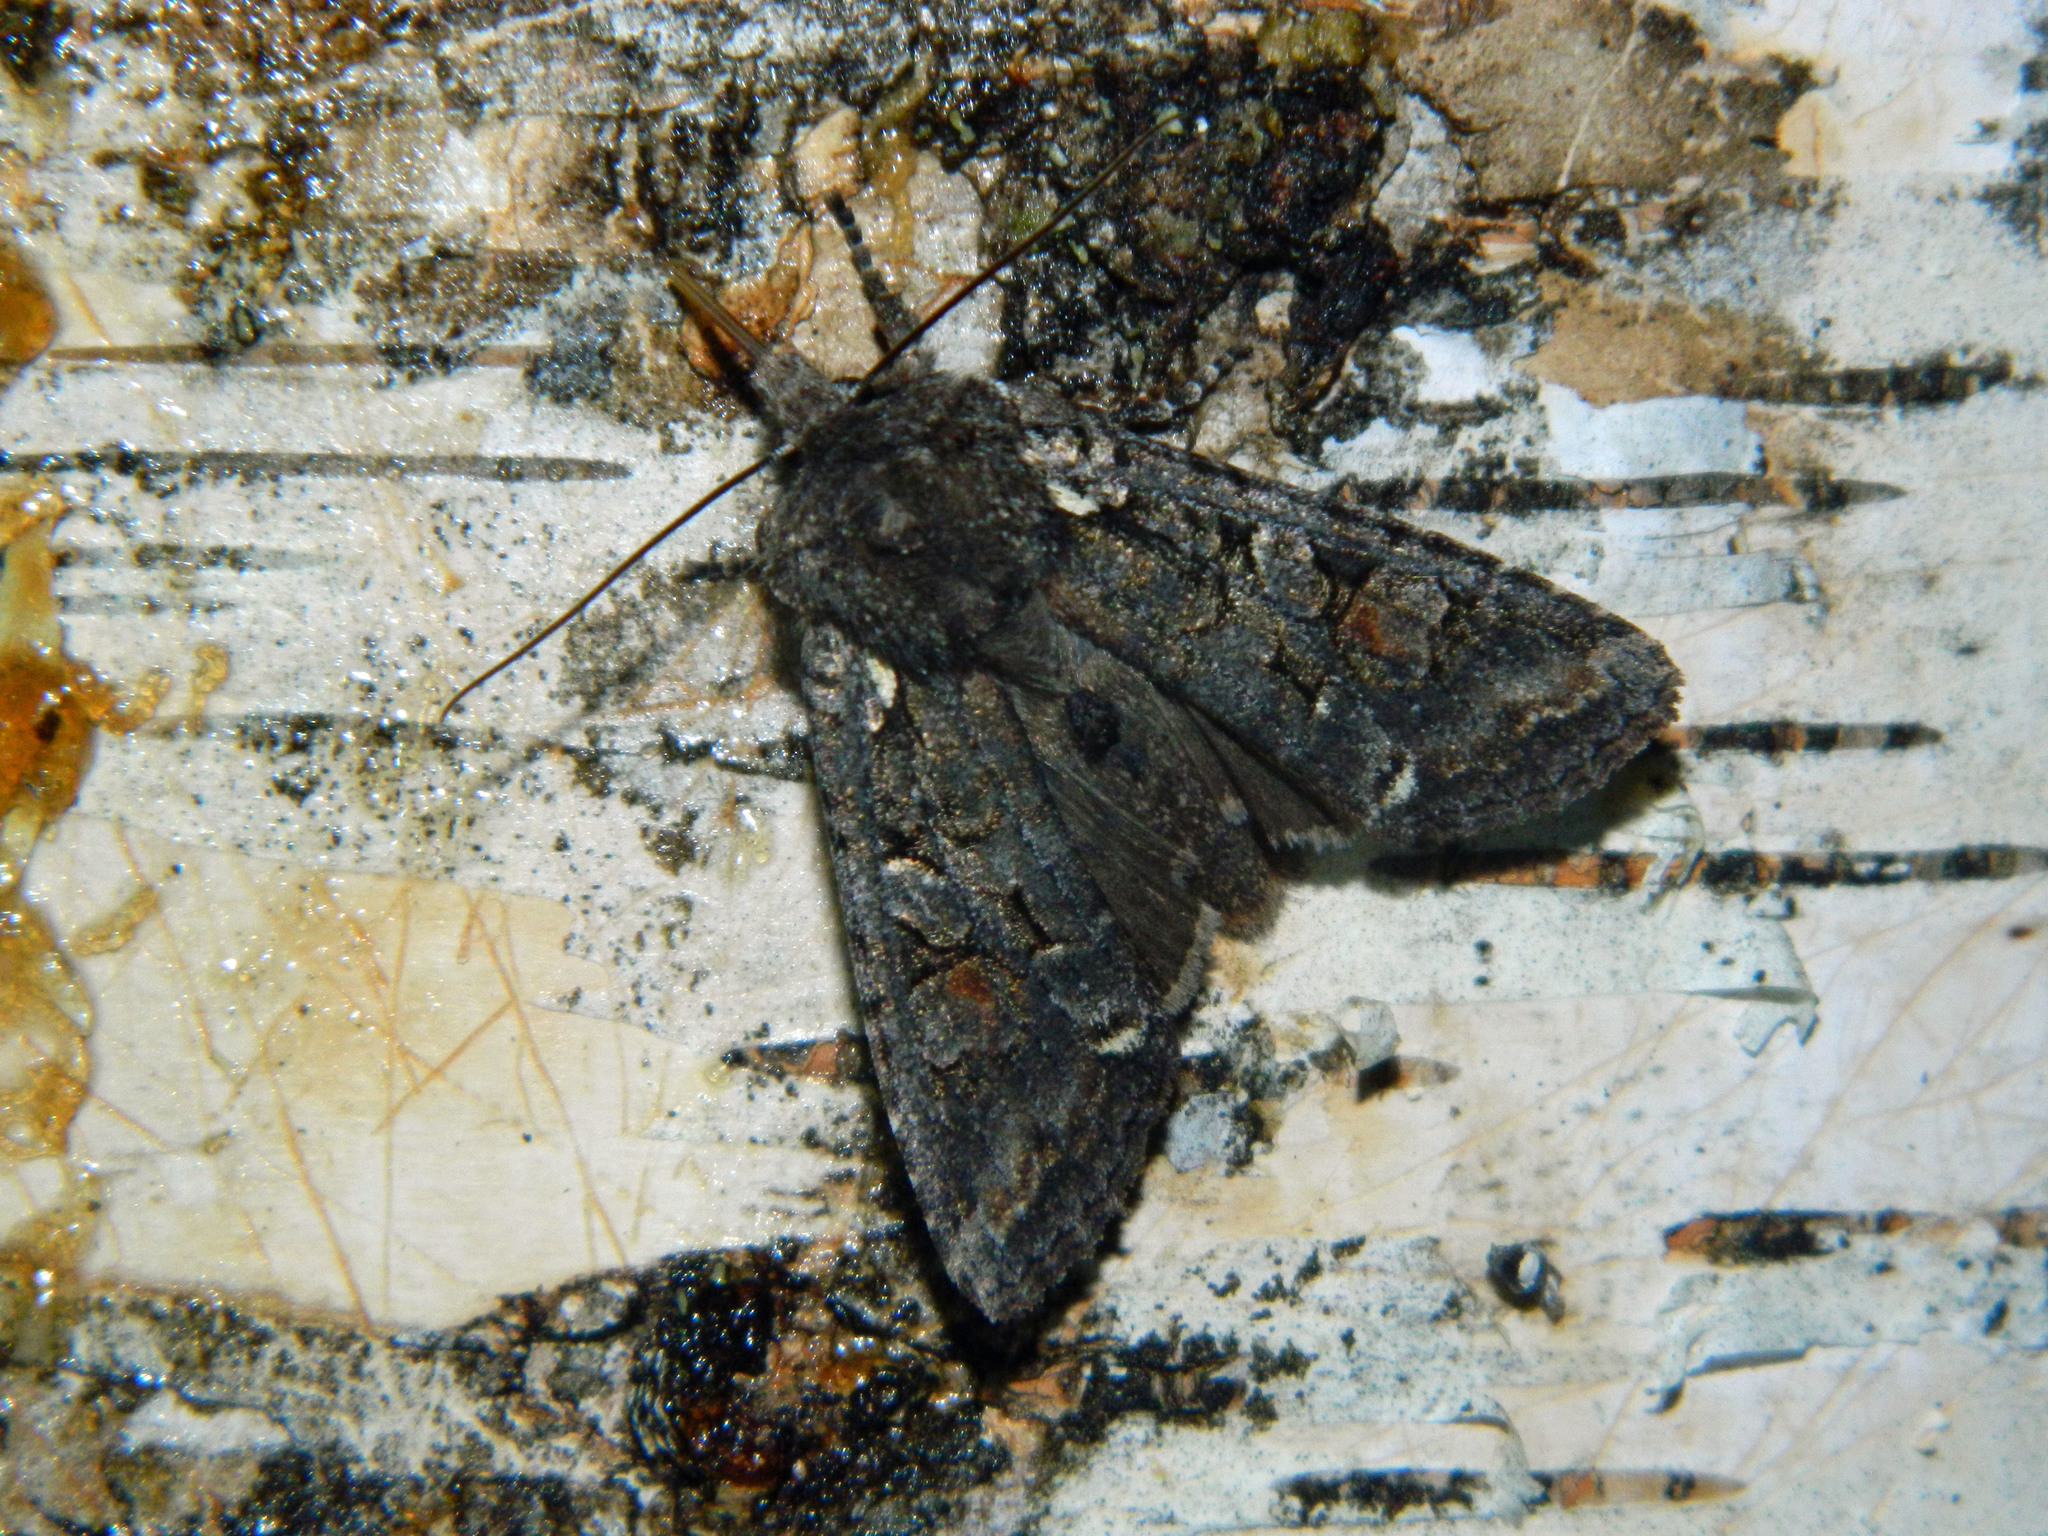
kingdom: Animalia
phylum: Arthropoda
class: Insecta
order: Lepidoptera
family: Noctuidae
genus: Lithophane
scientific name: Lithophane pexata
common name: Plush-naped pinion moth
